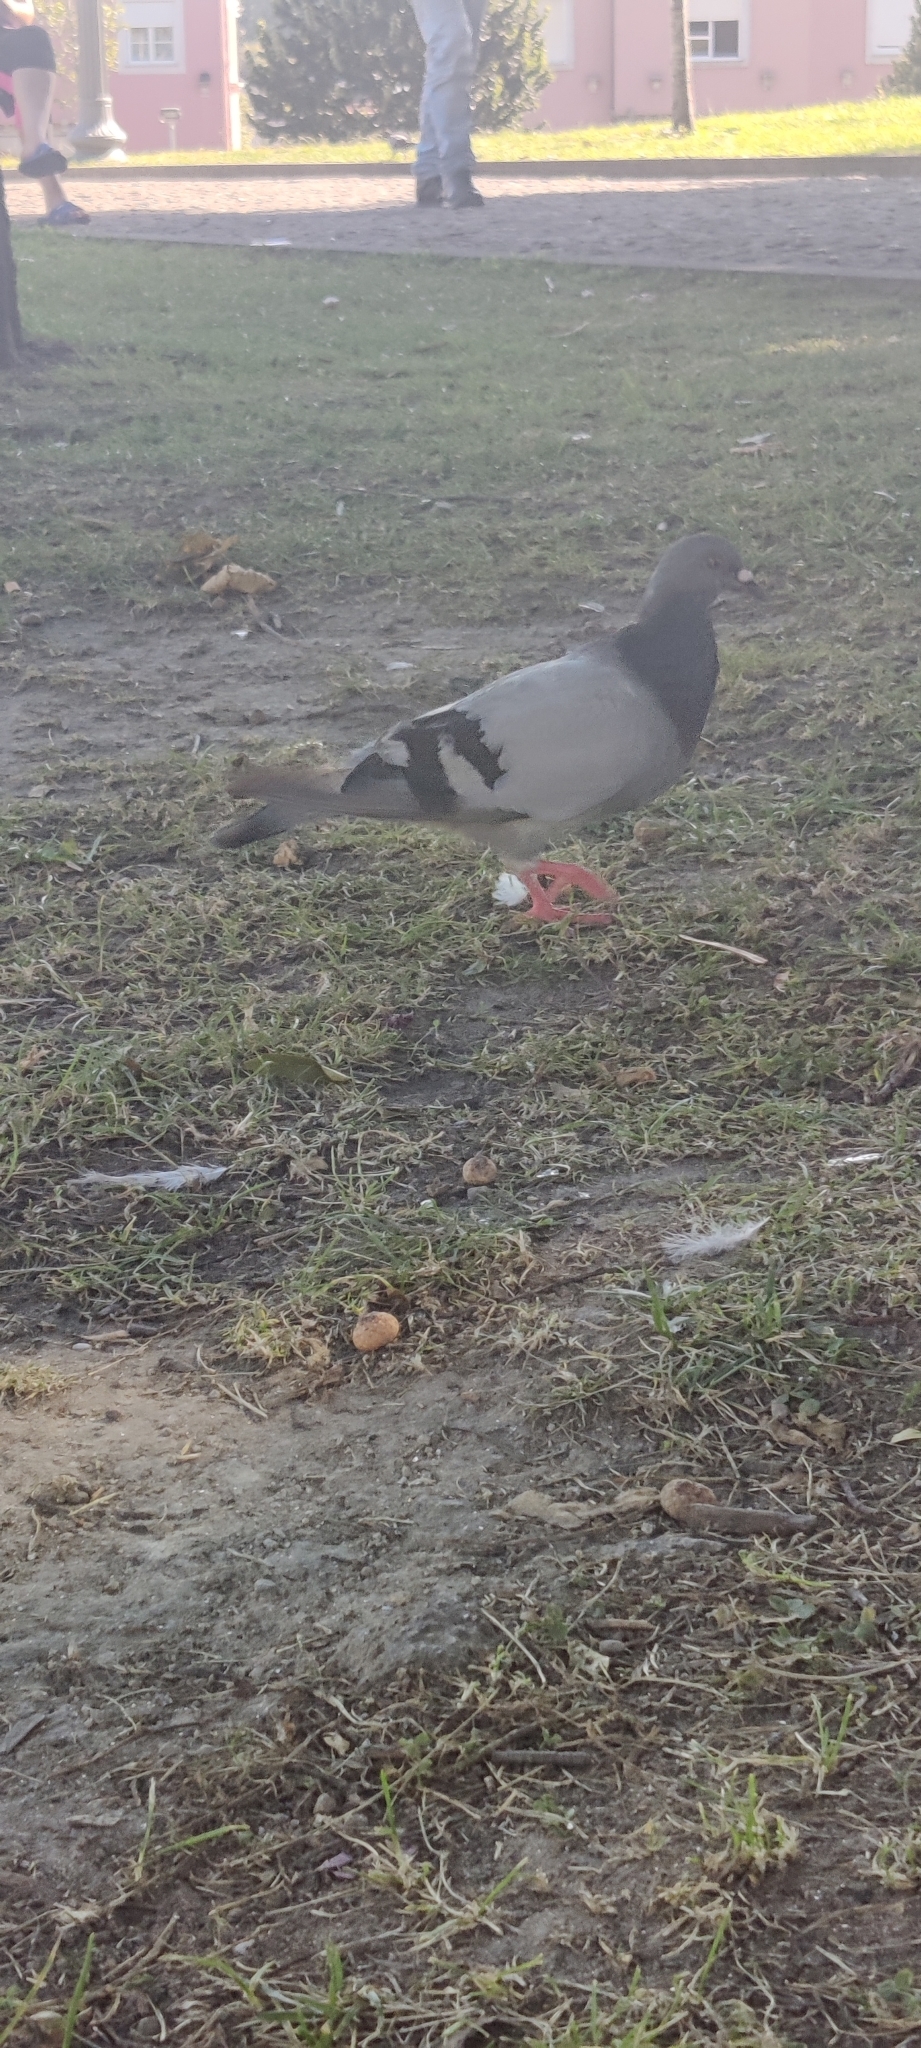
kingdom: Animalia
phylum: Chordata
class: Aves
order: Columbiformes
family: Columbidae
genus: Columba
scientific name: Columba livia
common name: Rock pigeon
